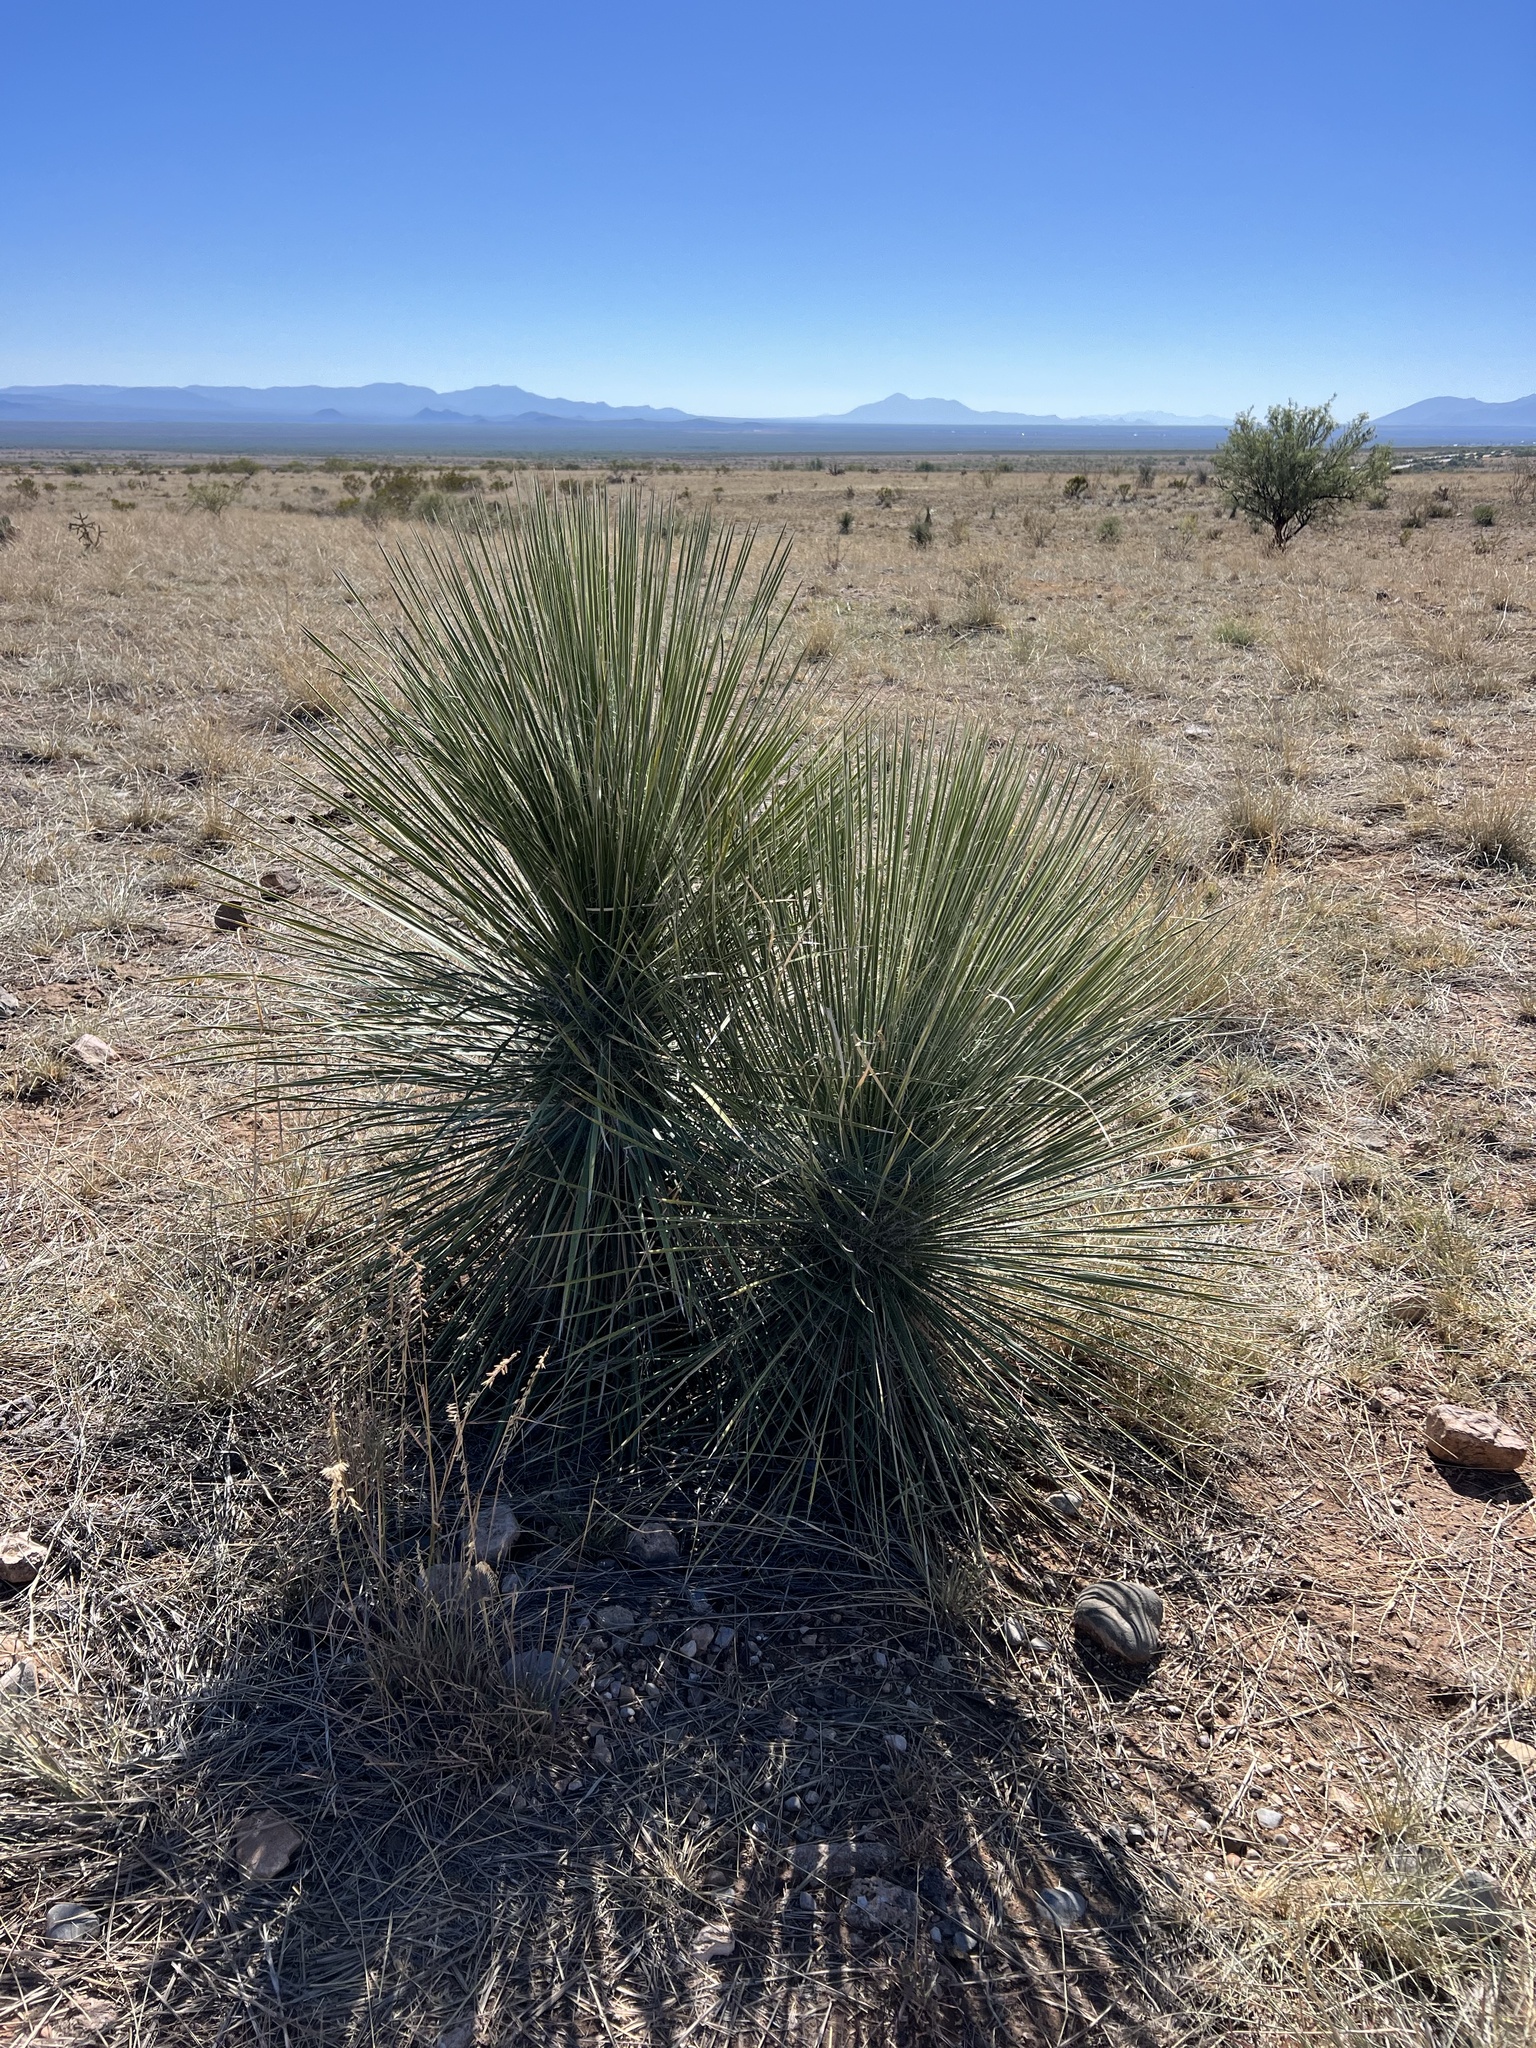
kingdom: Plantae
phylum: Tracheophyta
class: Liliopsida
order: Asparagales
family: Asparagaceae
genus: Yucca
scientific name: Yucca elata
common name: Palmella
